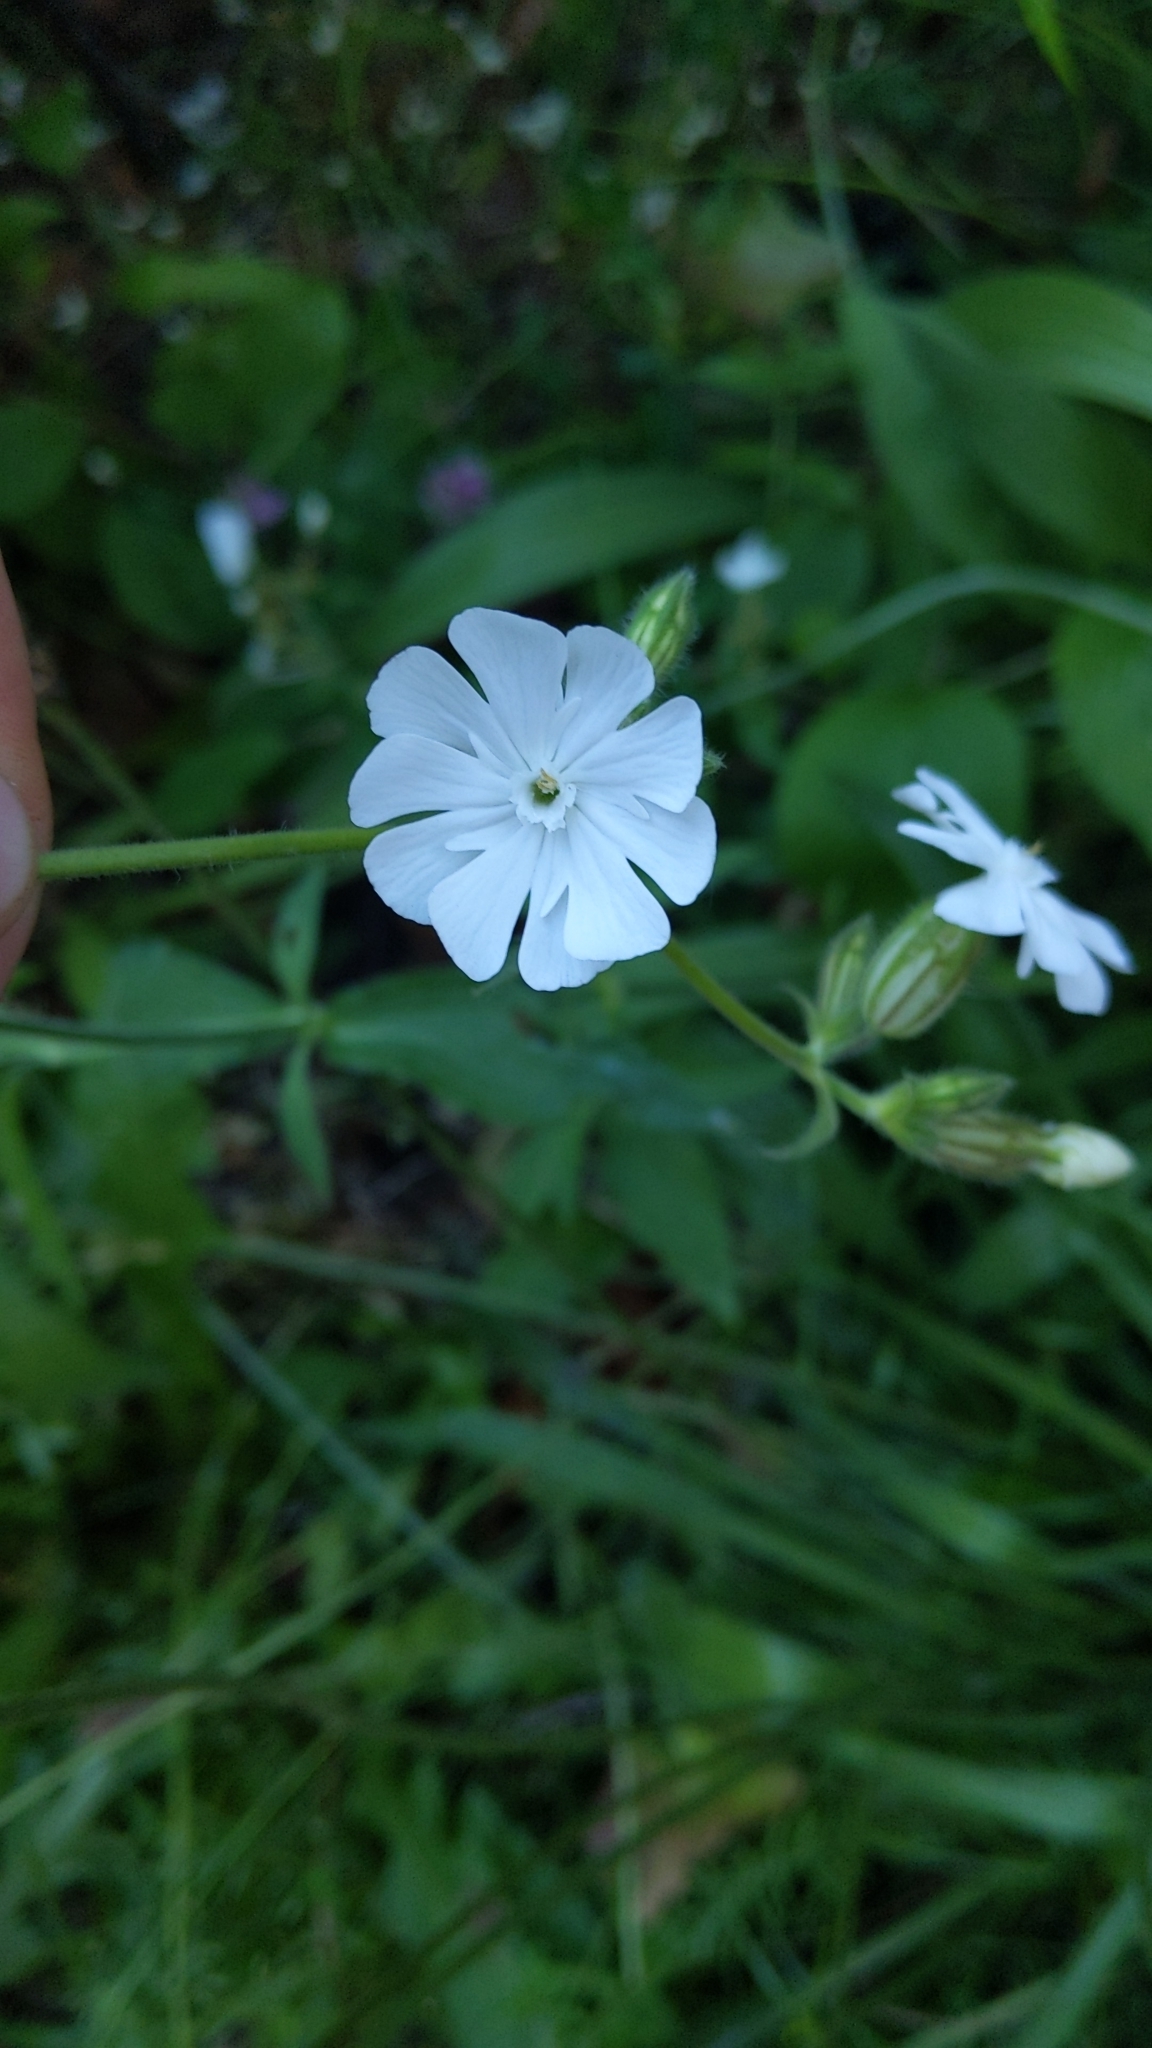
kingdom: Plantae
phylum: Tracheophyta
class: Magnoliopsida
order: Caryophyllales
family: Caryophyllaceae
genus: Silene
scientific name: Silene latifolia
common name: White campion
